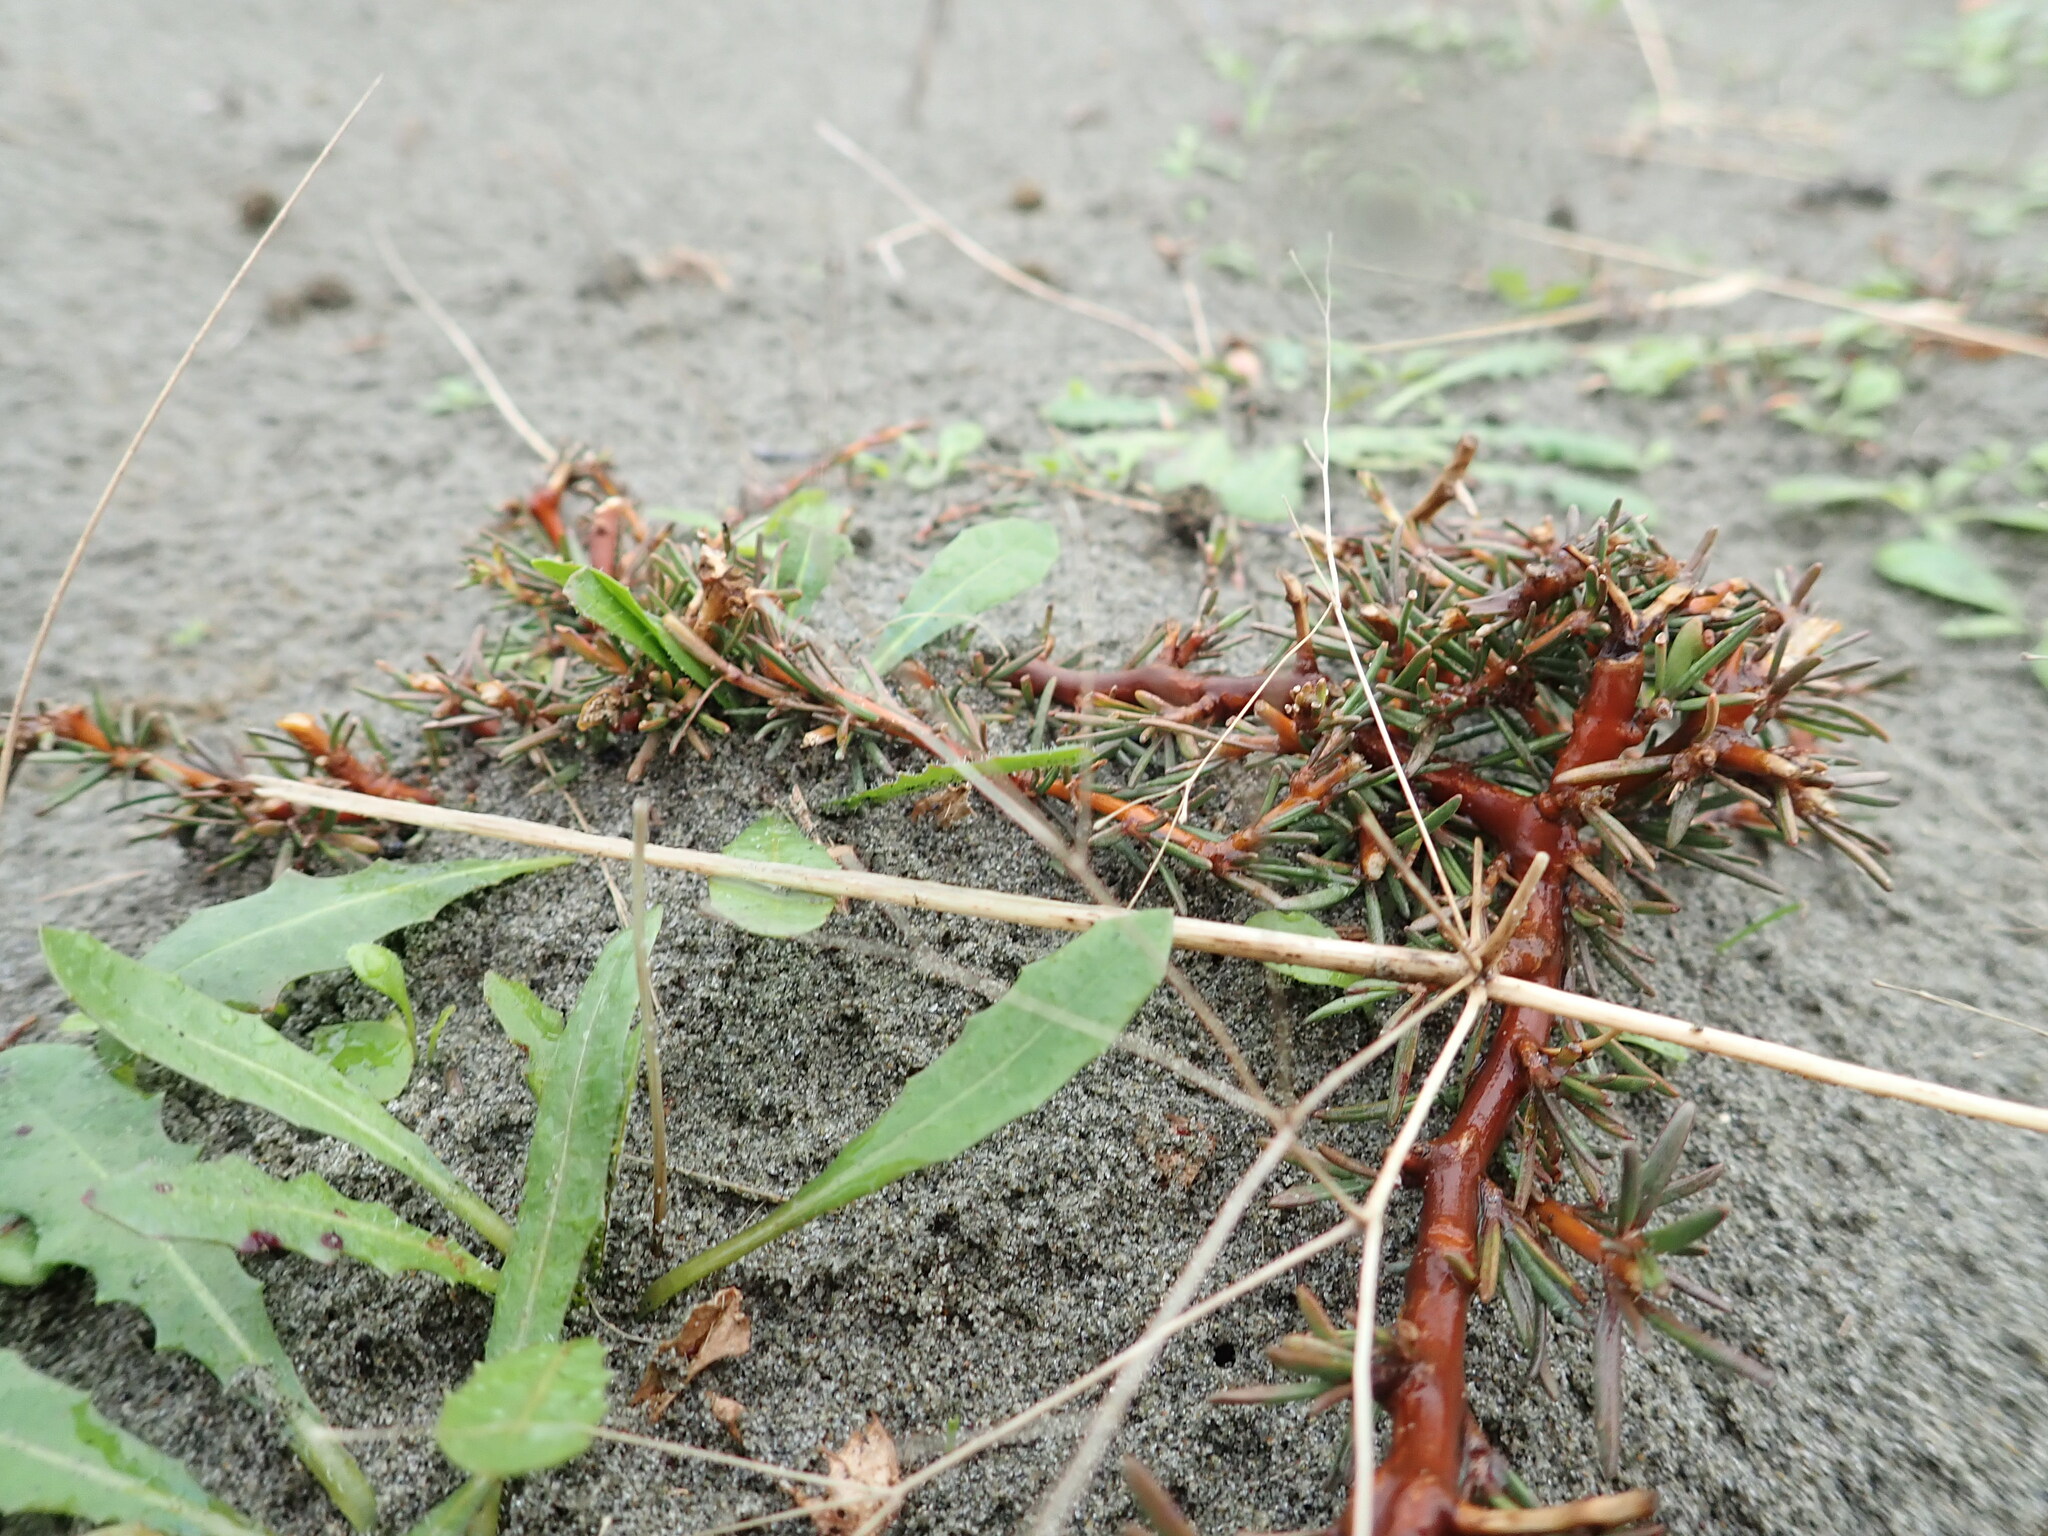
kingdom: Plantae
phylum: Tracheophyta
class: Magnoliopsida
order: Gentianales
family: Rubiaceae
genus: Coprosma
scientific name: Coprosma acerosa
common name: Sand coprosma
